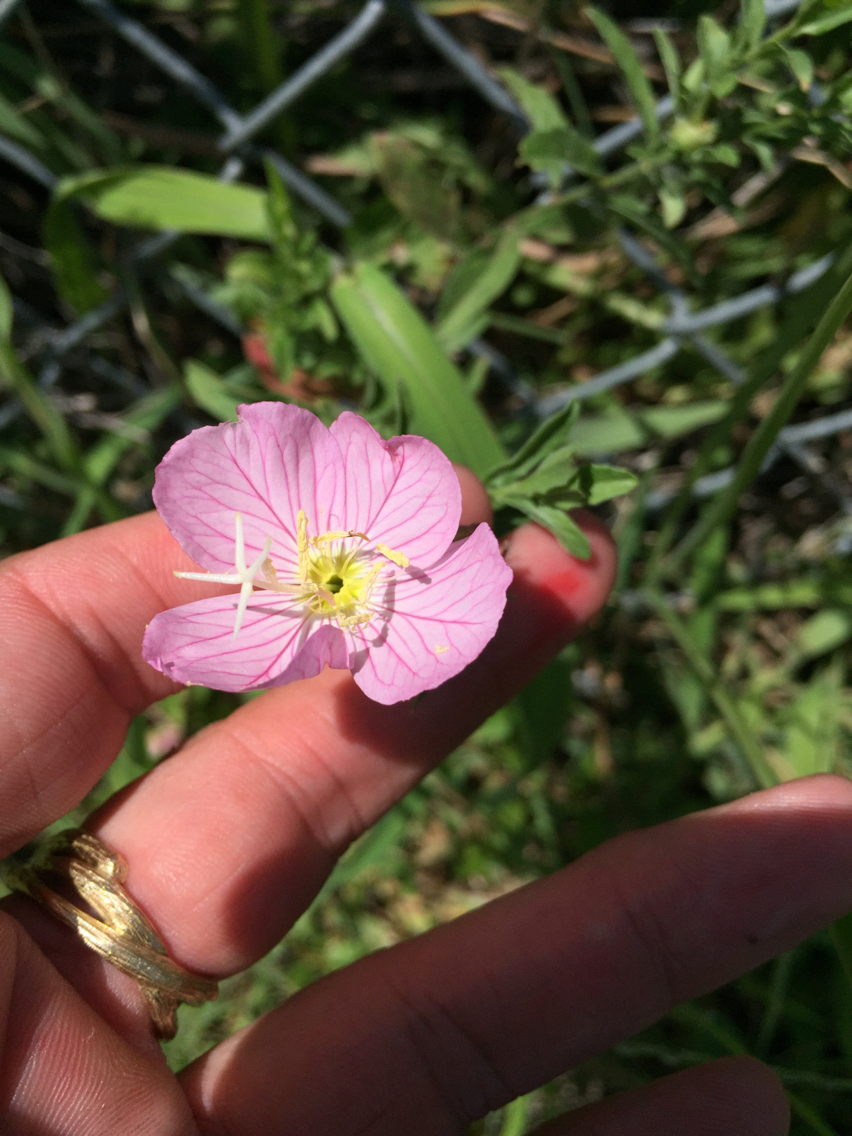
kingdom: Plantae
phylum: Tracheophyta
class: Magnoliopsida
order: Myrtales
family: Onagraceae
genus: Oenothera
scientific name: Oenothera speciosa
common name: White evening-primrose
